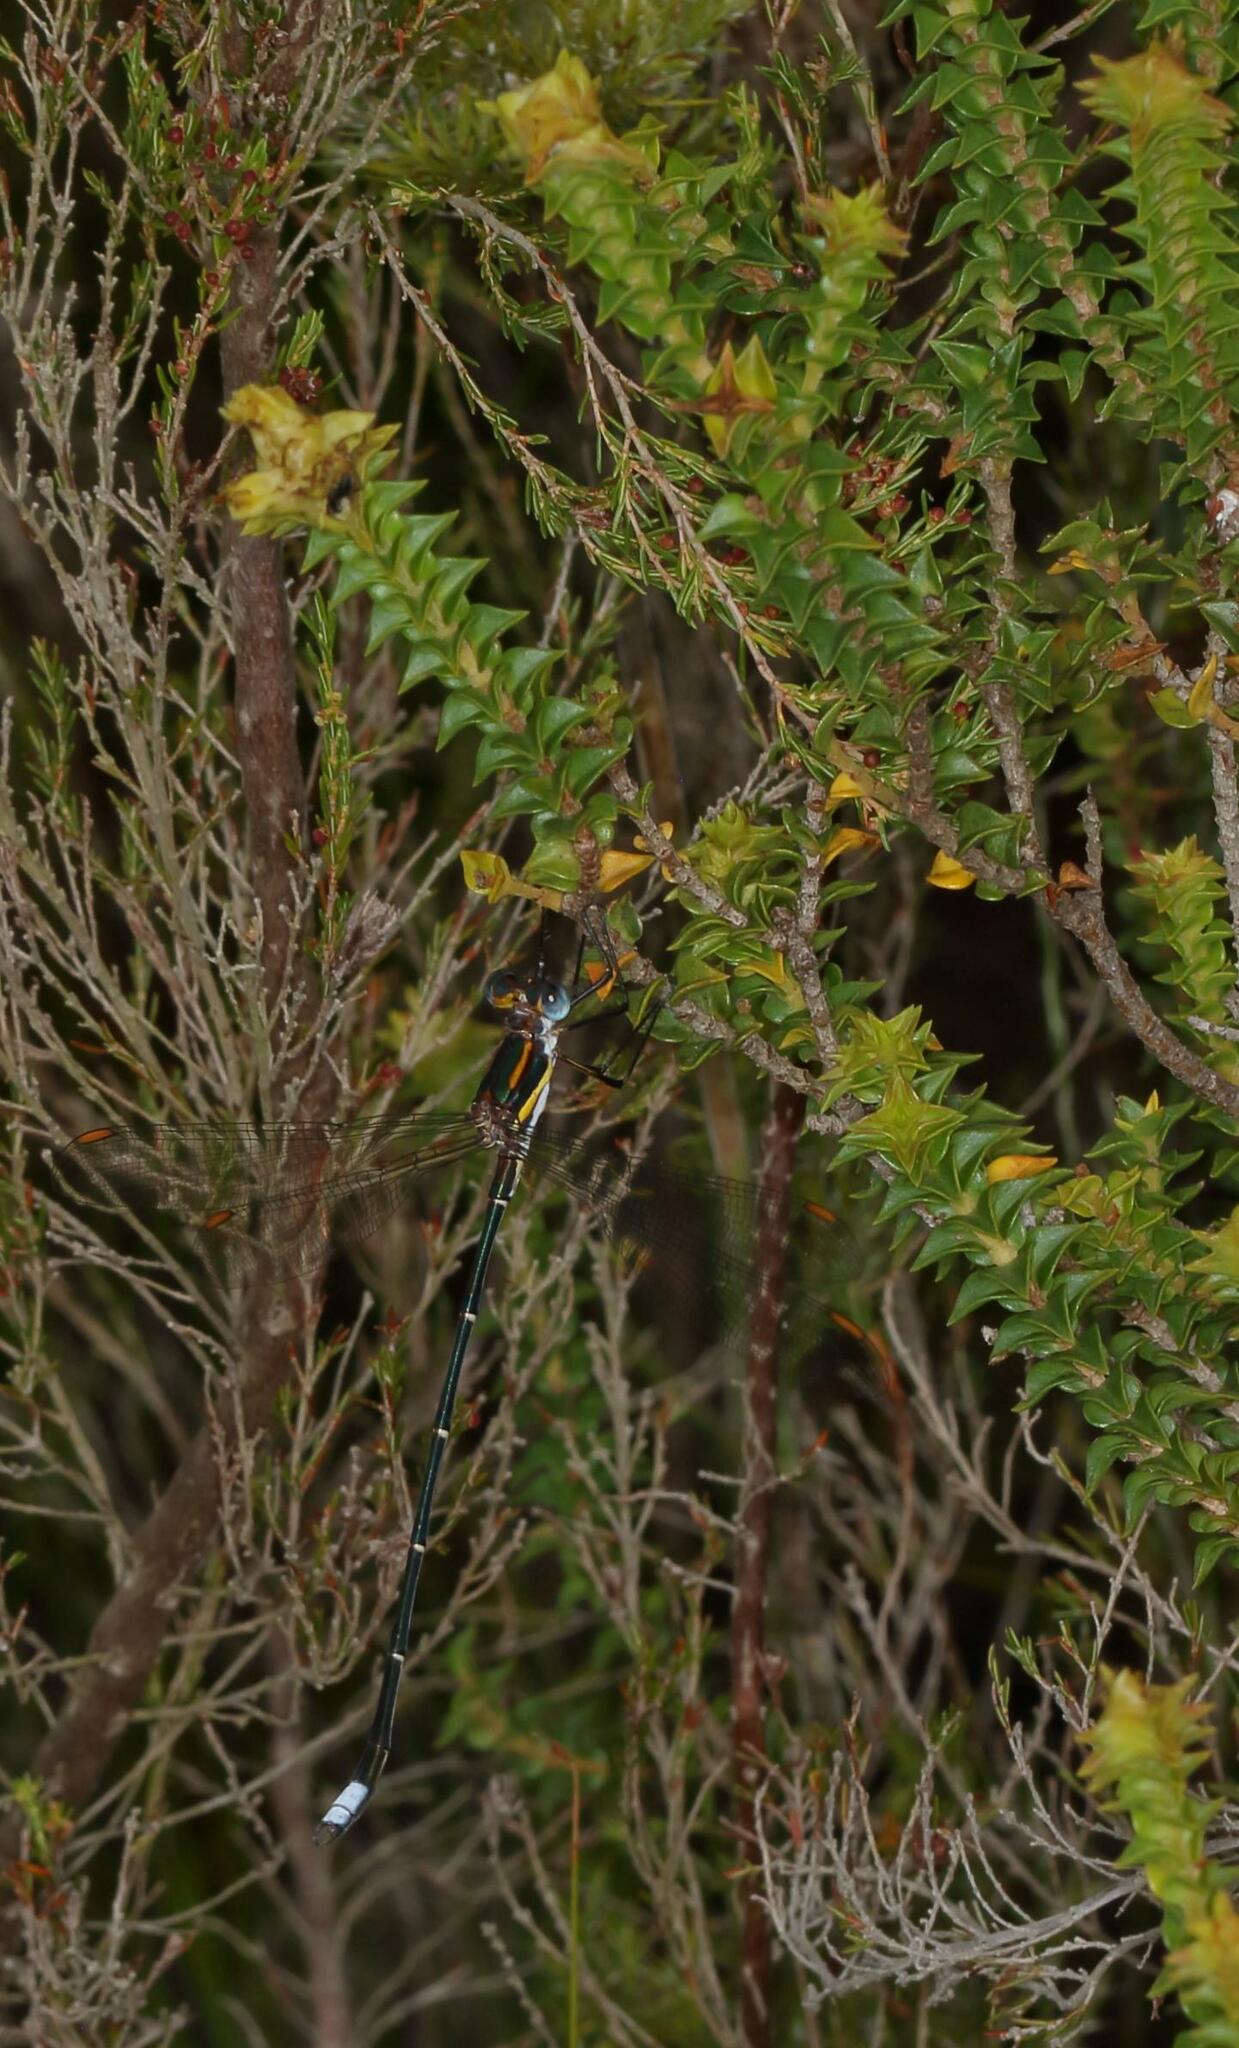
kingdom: Animalia
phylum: Arthropoda
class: Insecta
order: Odonata
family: Synlestidae
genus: Chlorolestes
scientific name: Chlorolestes conspicuus
